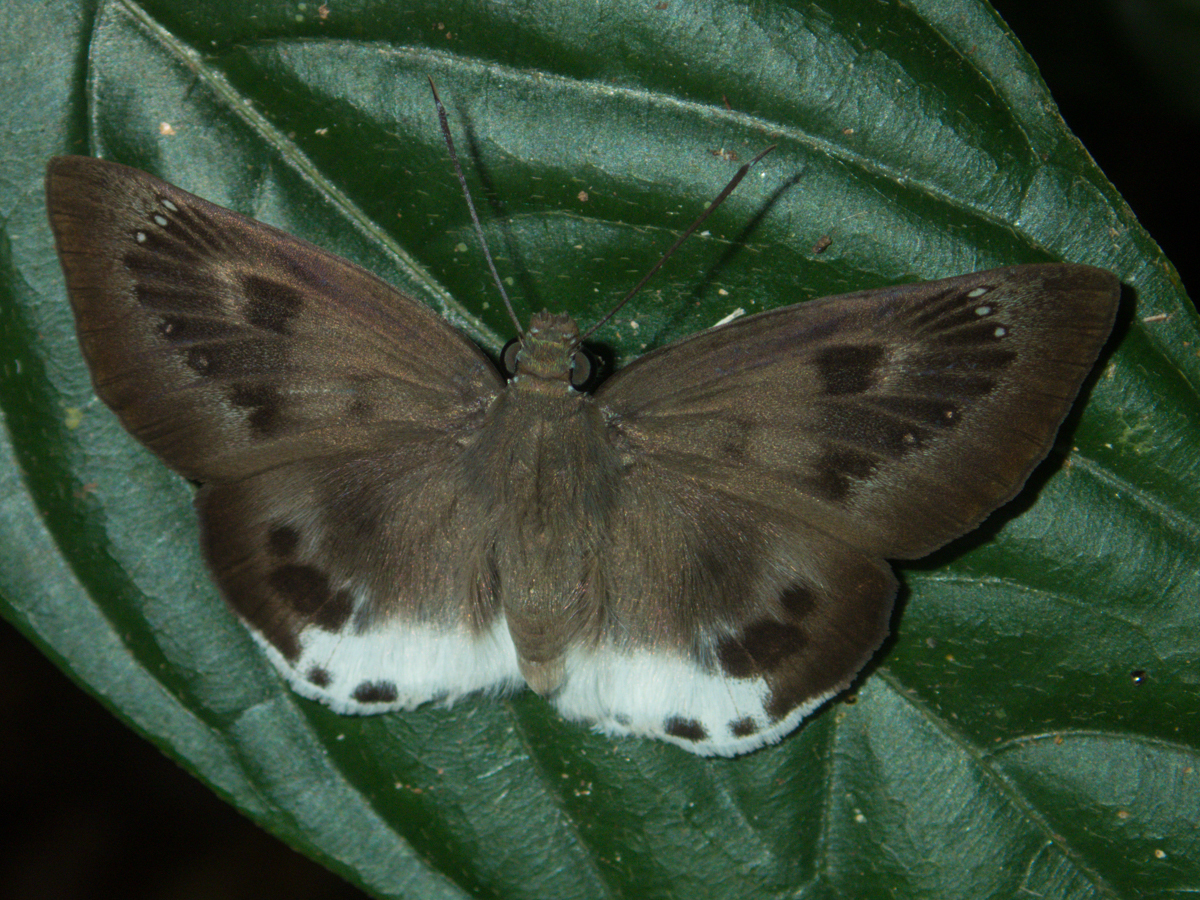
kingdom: Animalia
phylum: Arthropoda
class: Insecta
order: Lepidoptera
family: Hesperiidae
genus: Tagiades
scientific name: Tagiades parra
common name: Straight snow flat
